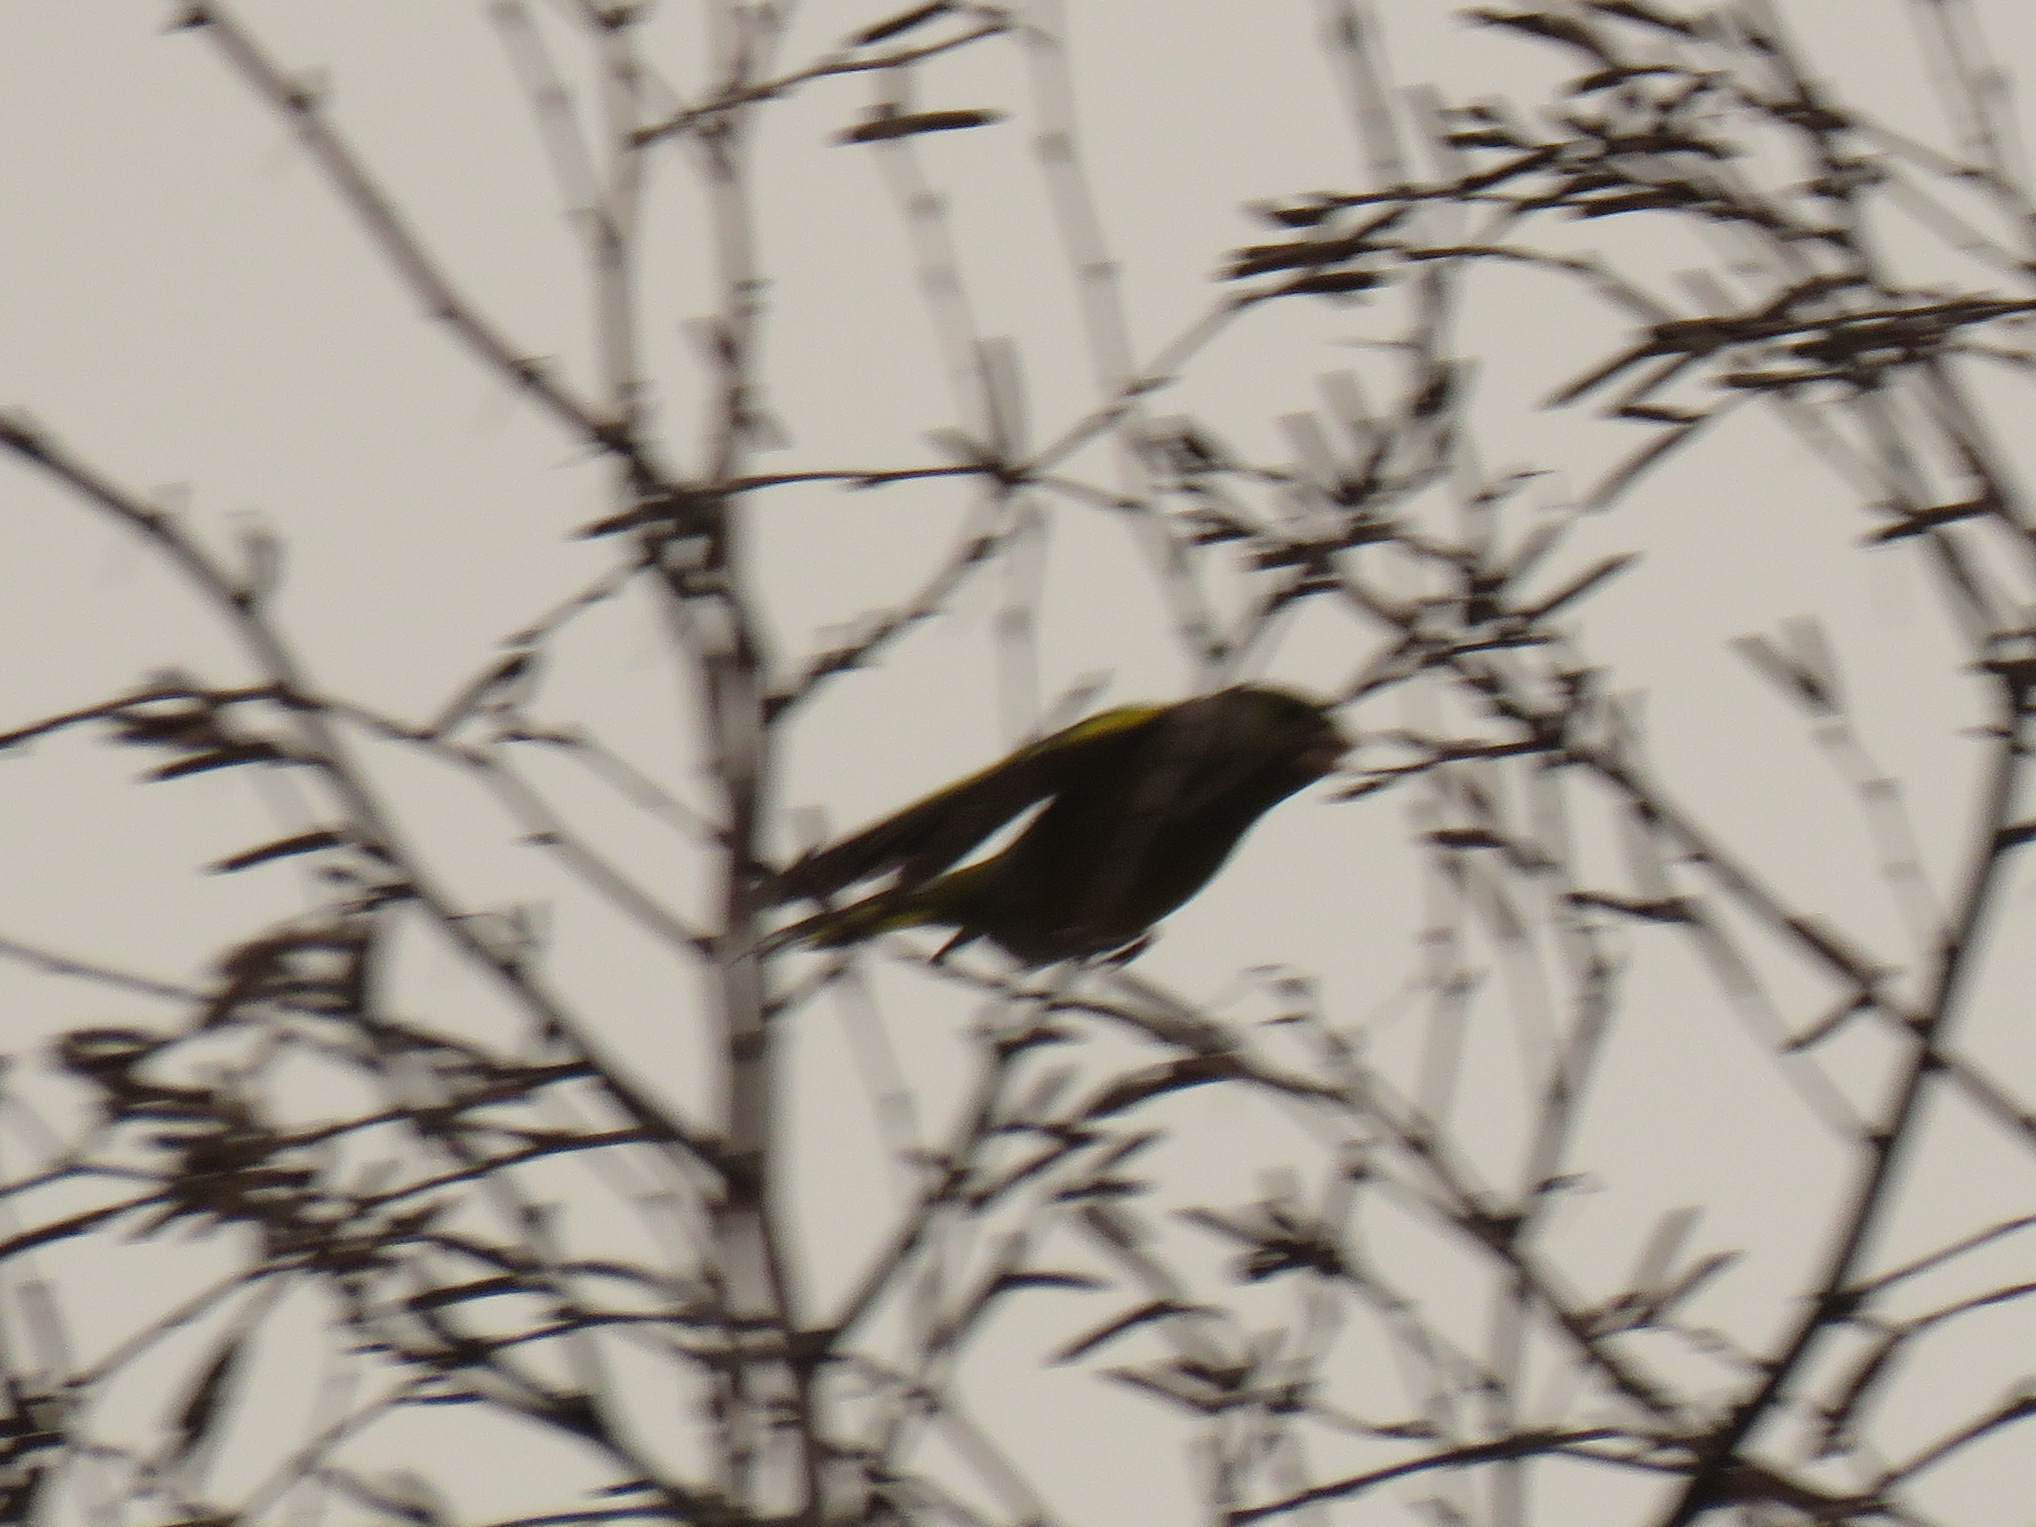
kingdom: Plantae
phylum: Tracheophyta
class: Liliopsida
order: Poales
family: Poaceae
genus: Chloris
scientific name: Chloris chloris
